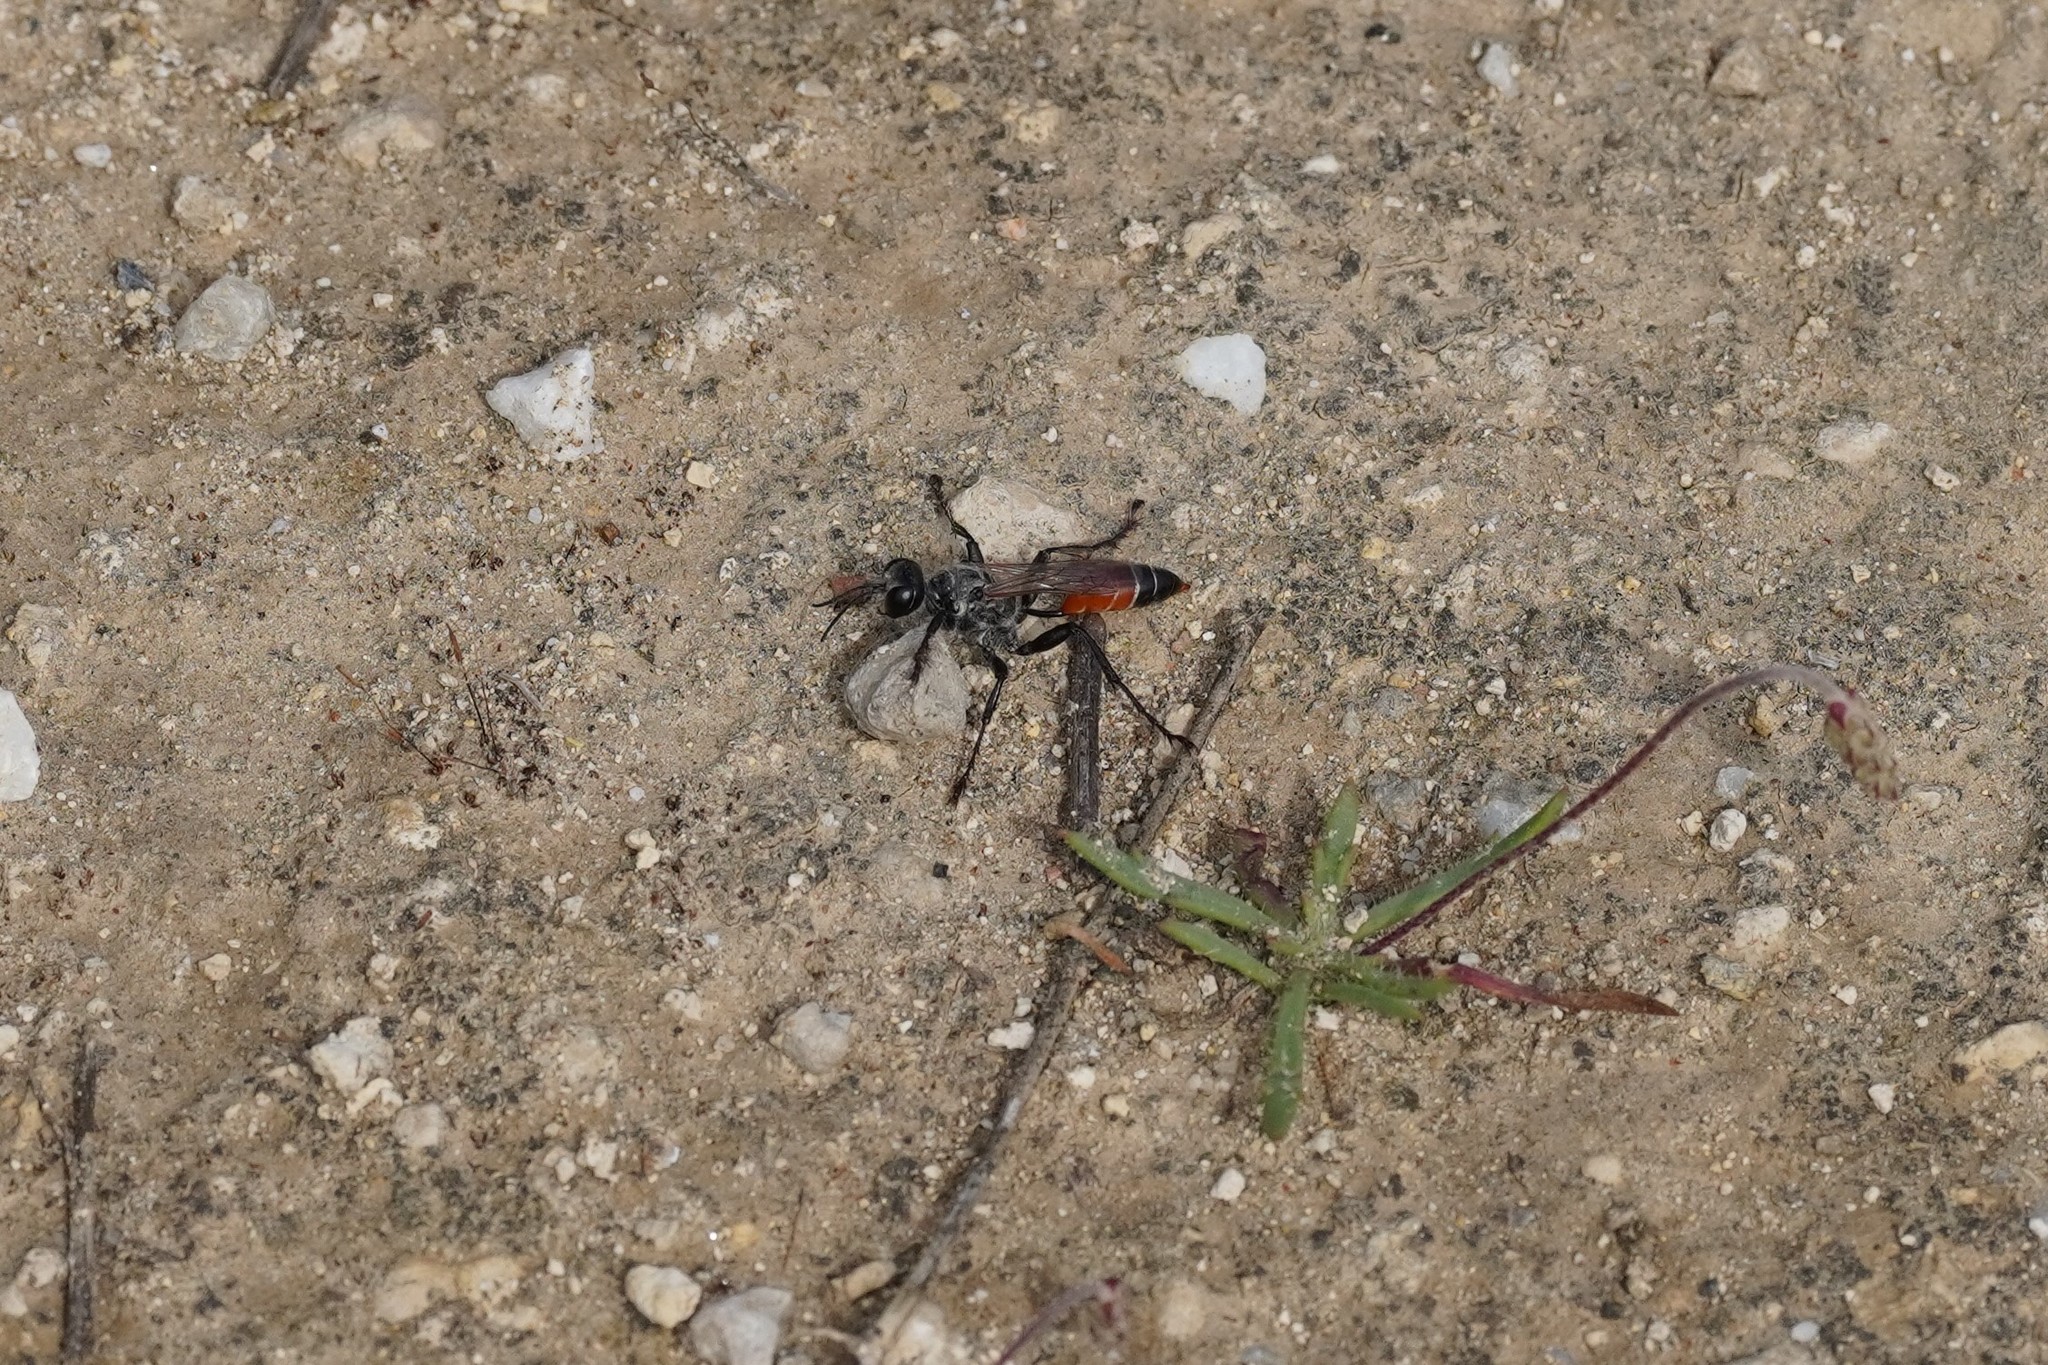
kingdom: Animalia
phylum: Arthropoda
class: Insecta
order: Hymenoptera
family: Sphecidae
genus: Prionyx
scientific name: Prionyx kirbii
